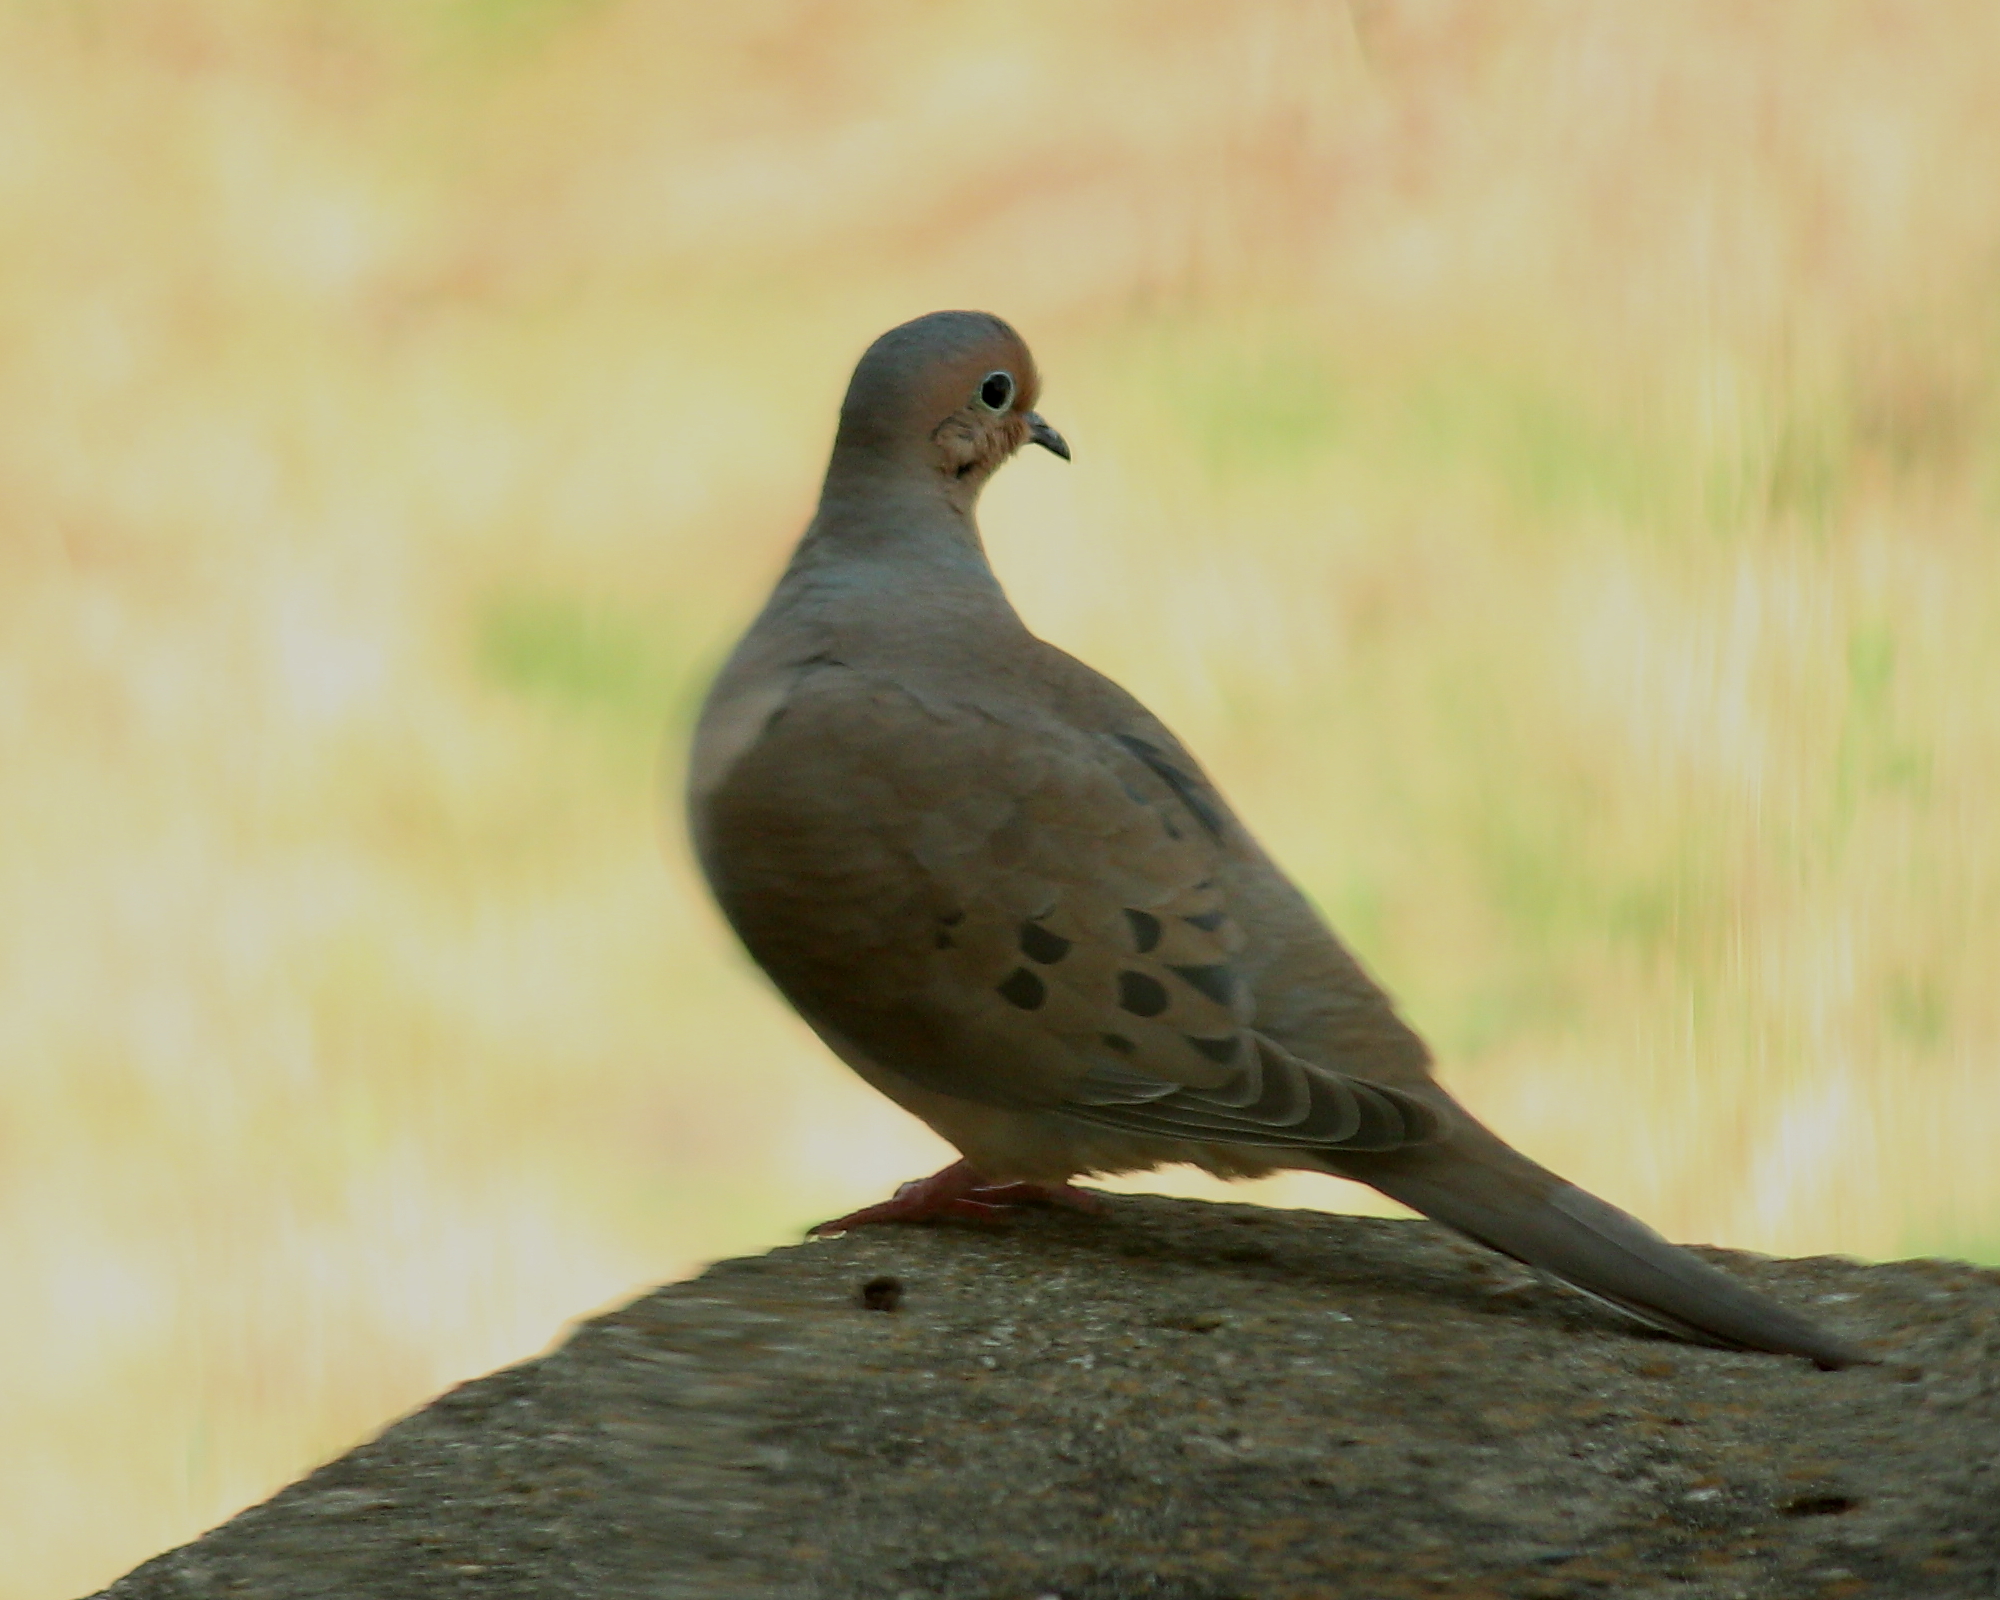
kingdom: Animalia
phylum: Chordata
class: Aves
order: Columbiformes
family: Columbidae
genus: Zenaida
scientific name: Zenaida macroura
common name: Mourning dove
